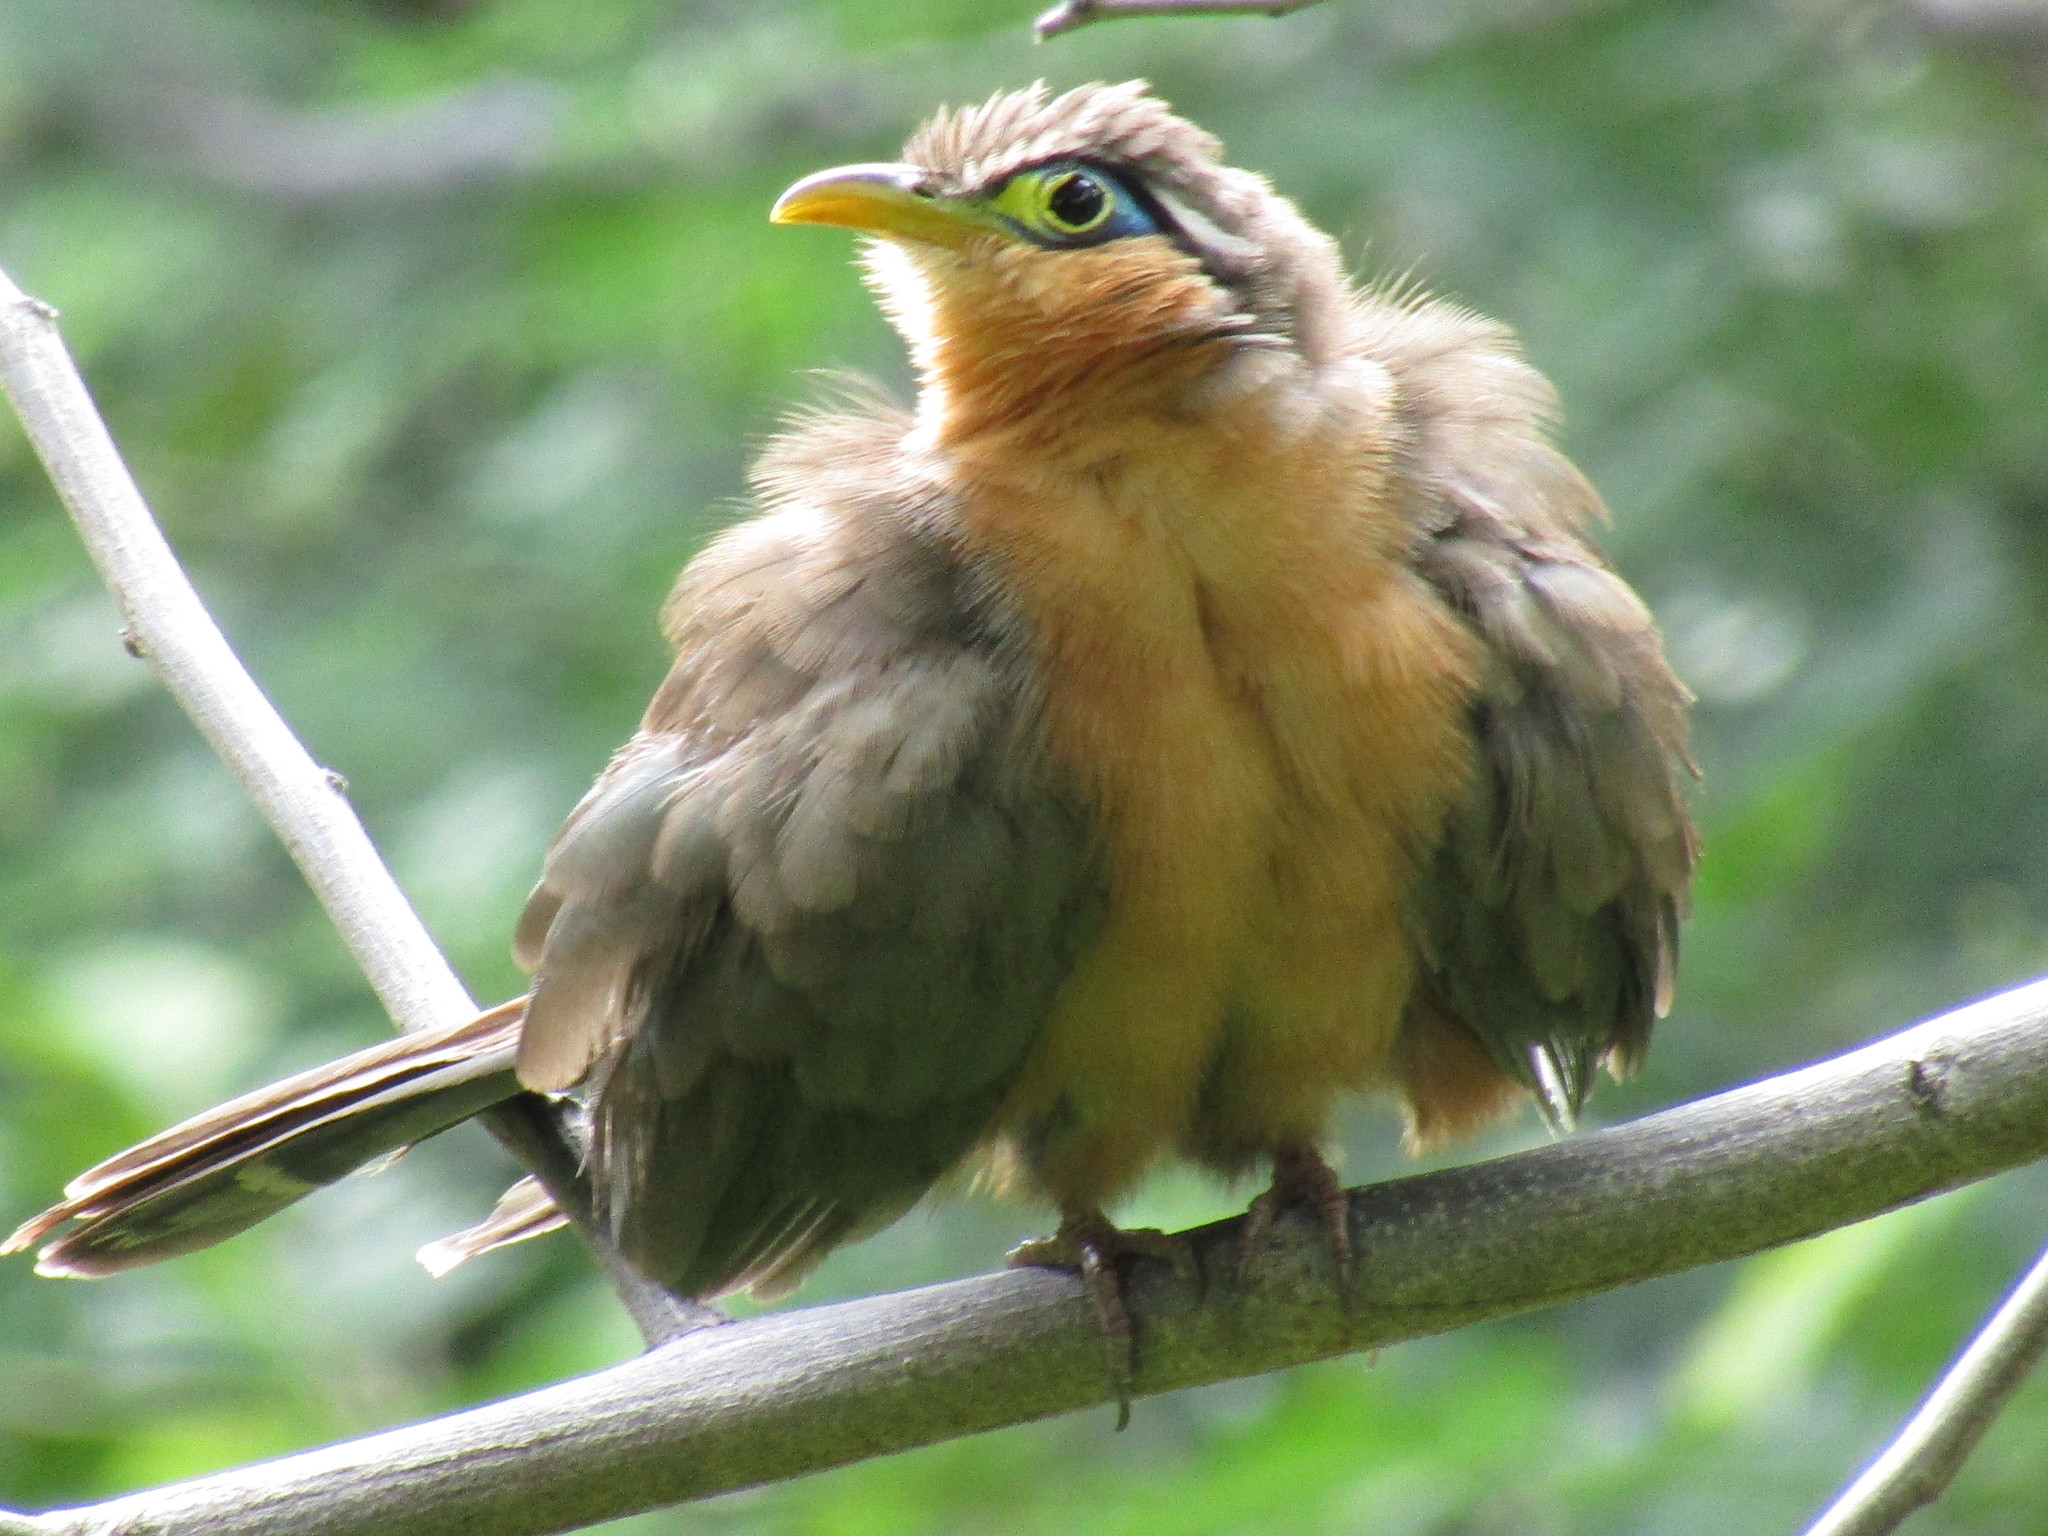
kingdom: Animalia
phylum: Chordata
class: Aves
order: Cuculiformes
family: Cuculidae
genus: Morococcyx
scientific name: Morococcyx erythropygus
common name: Lesser ground-cuckoo
